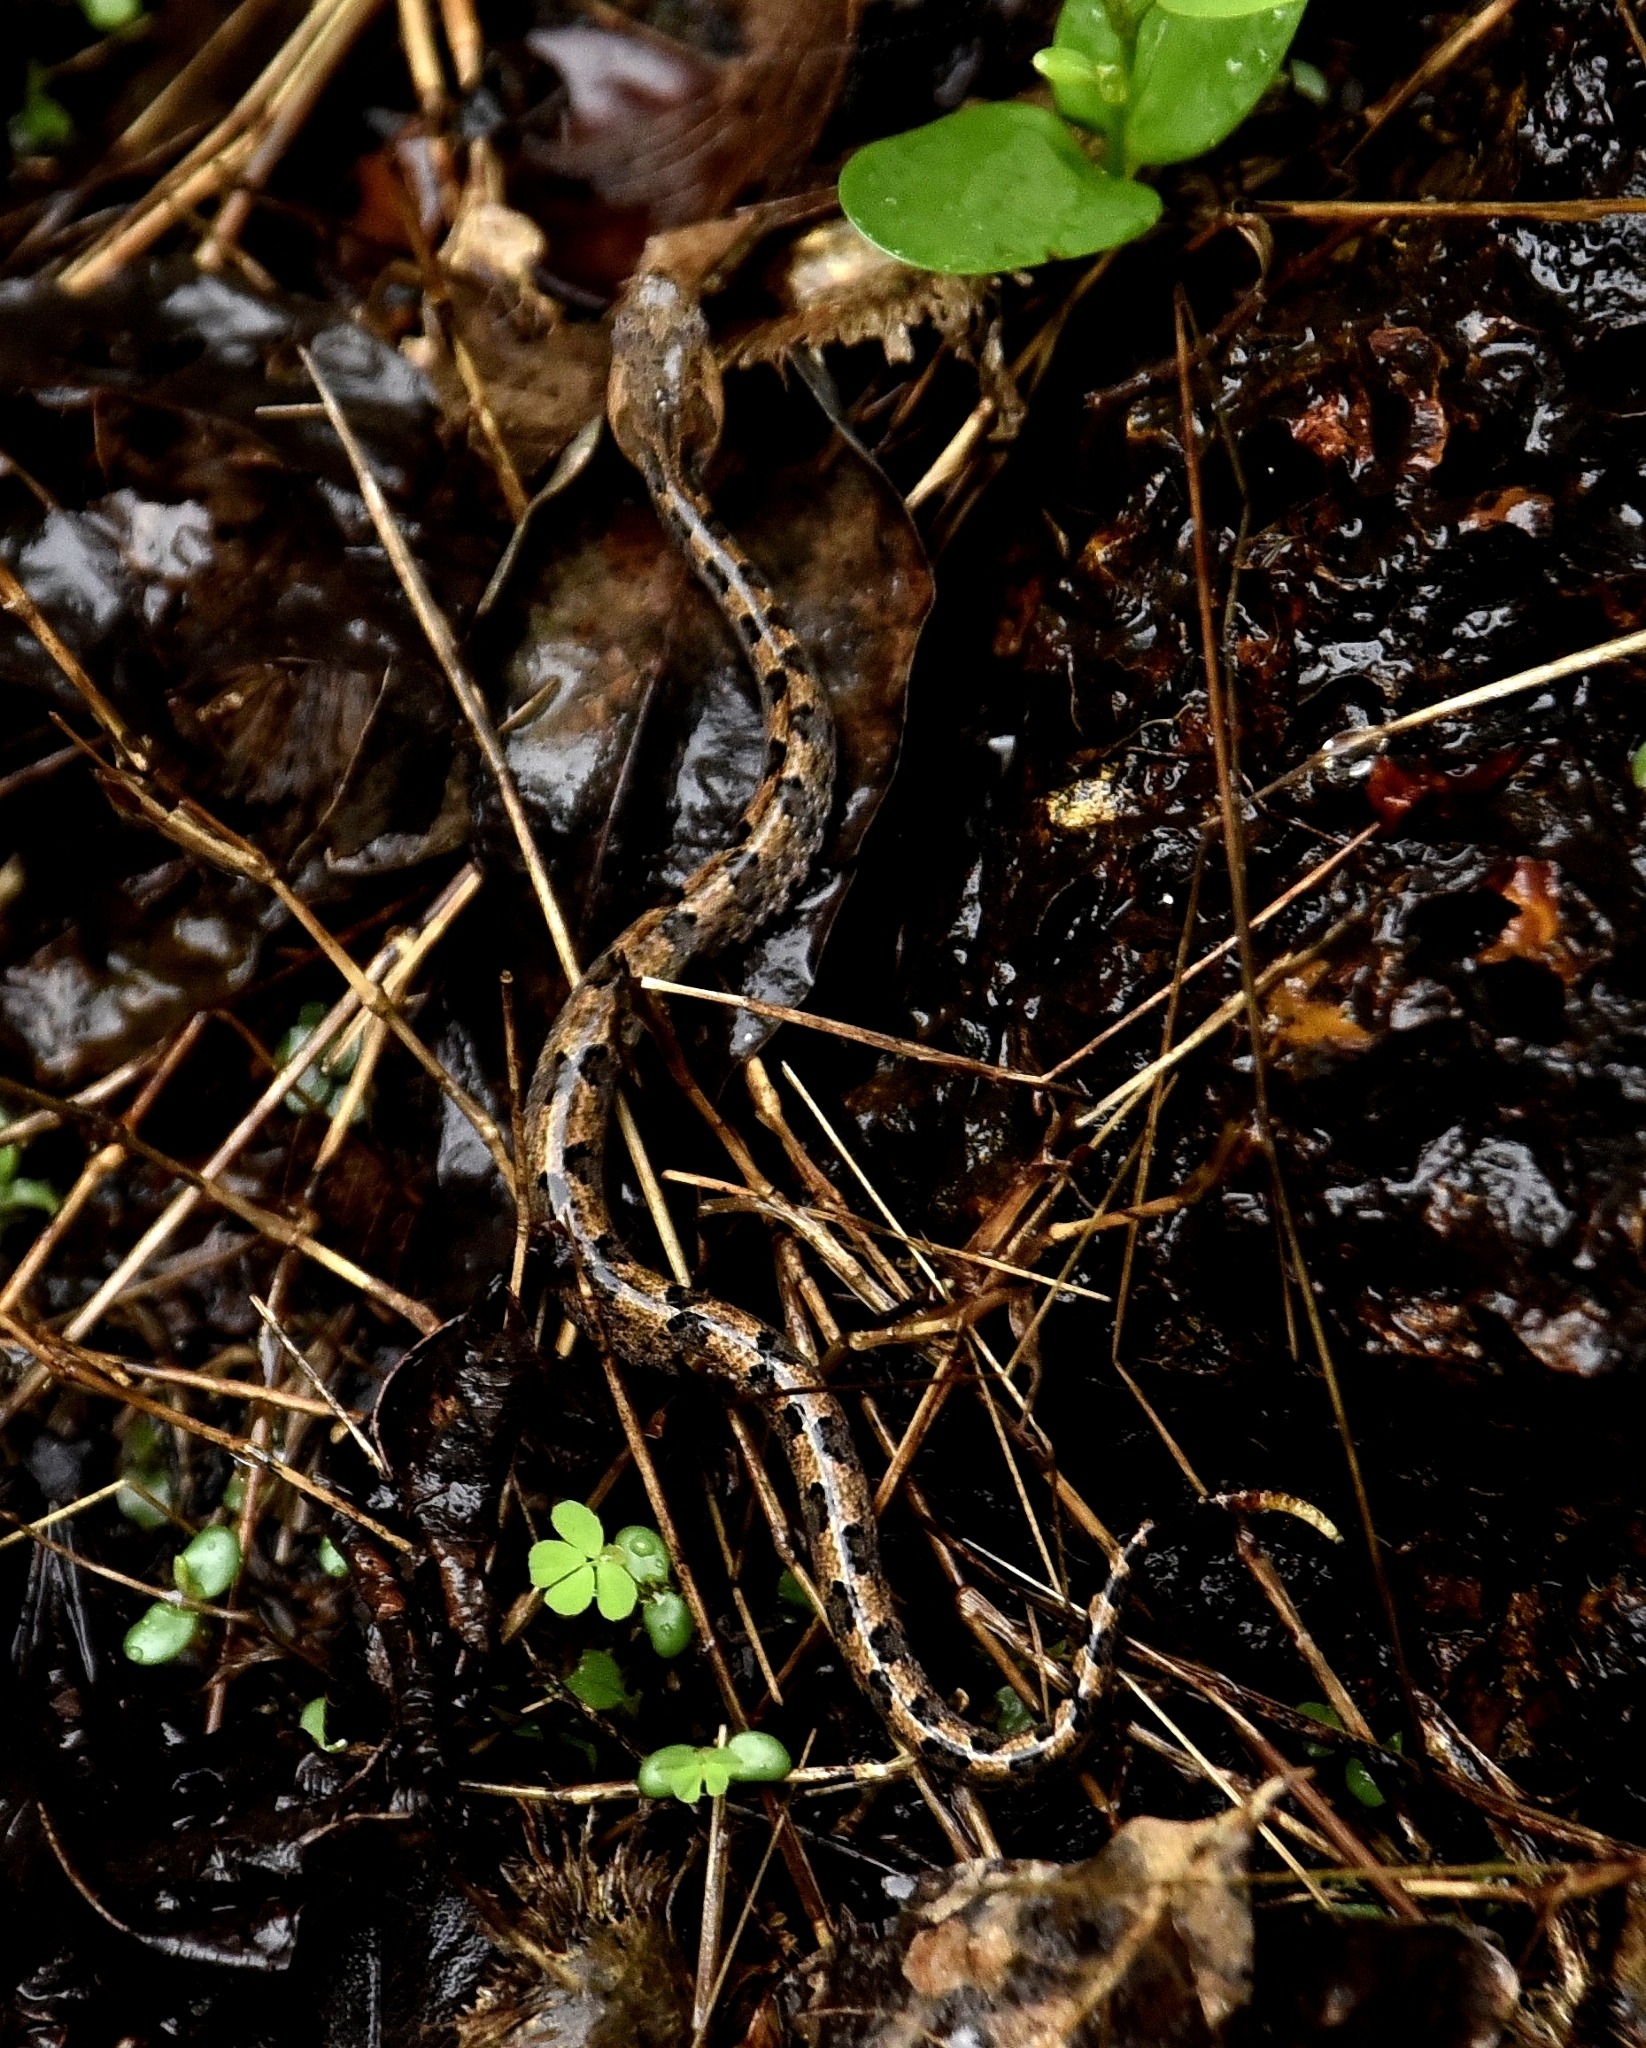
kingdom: Animalia
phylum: Chordata
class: Squamata
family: Viperidae
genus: Hypnale
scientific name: Hypnale hypnale
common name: Hump-nosed moccasin
